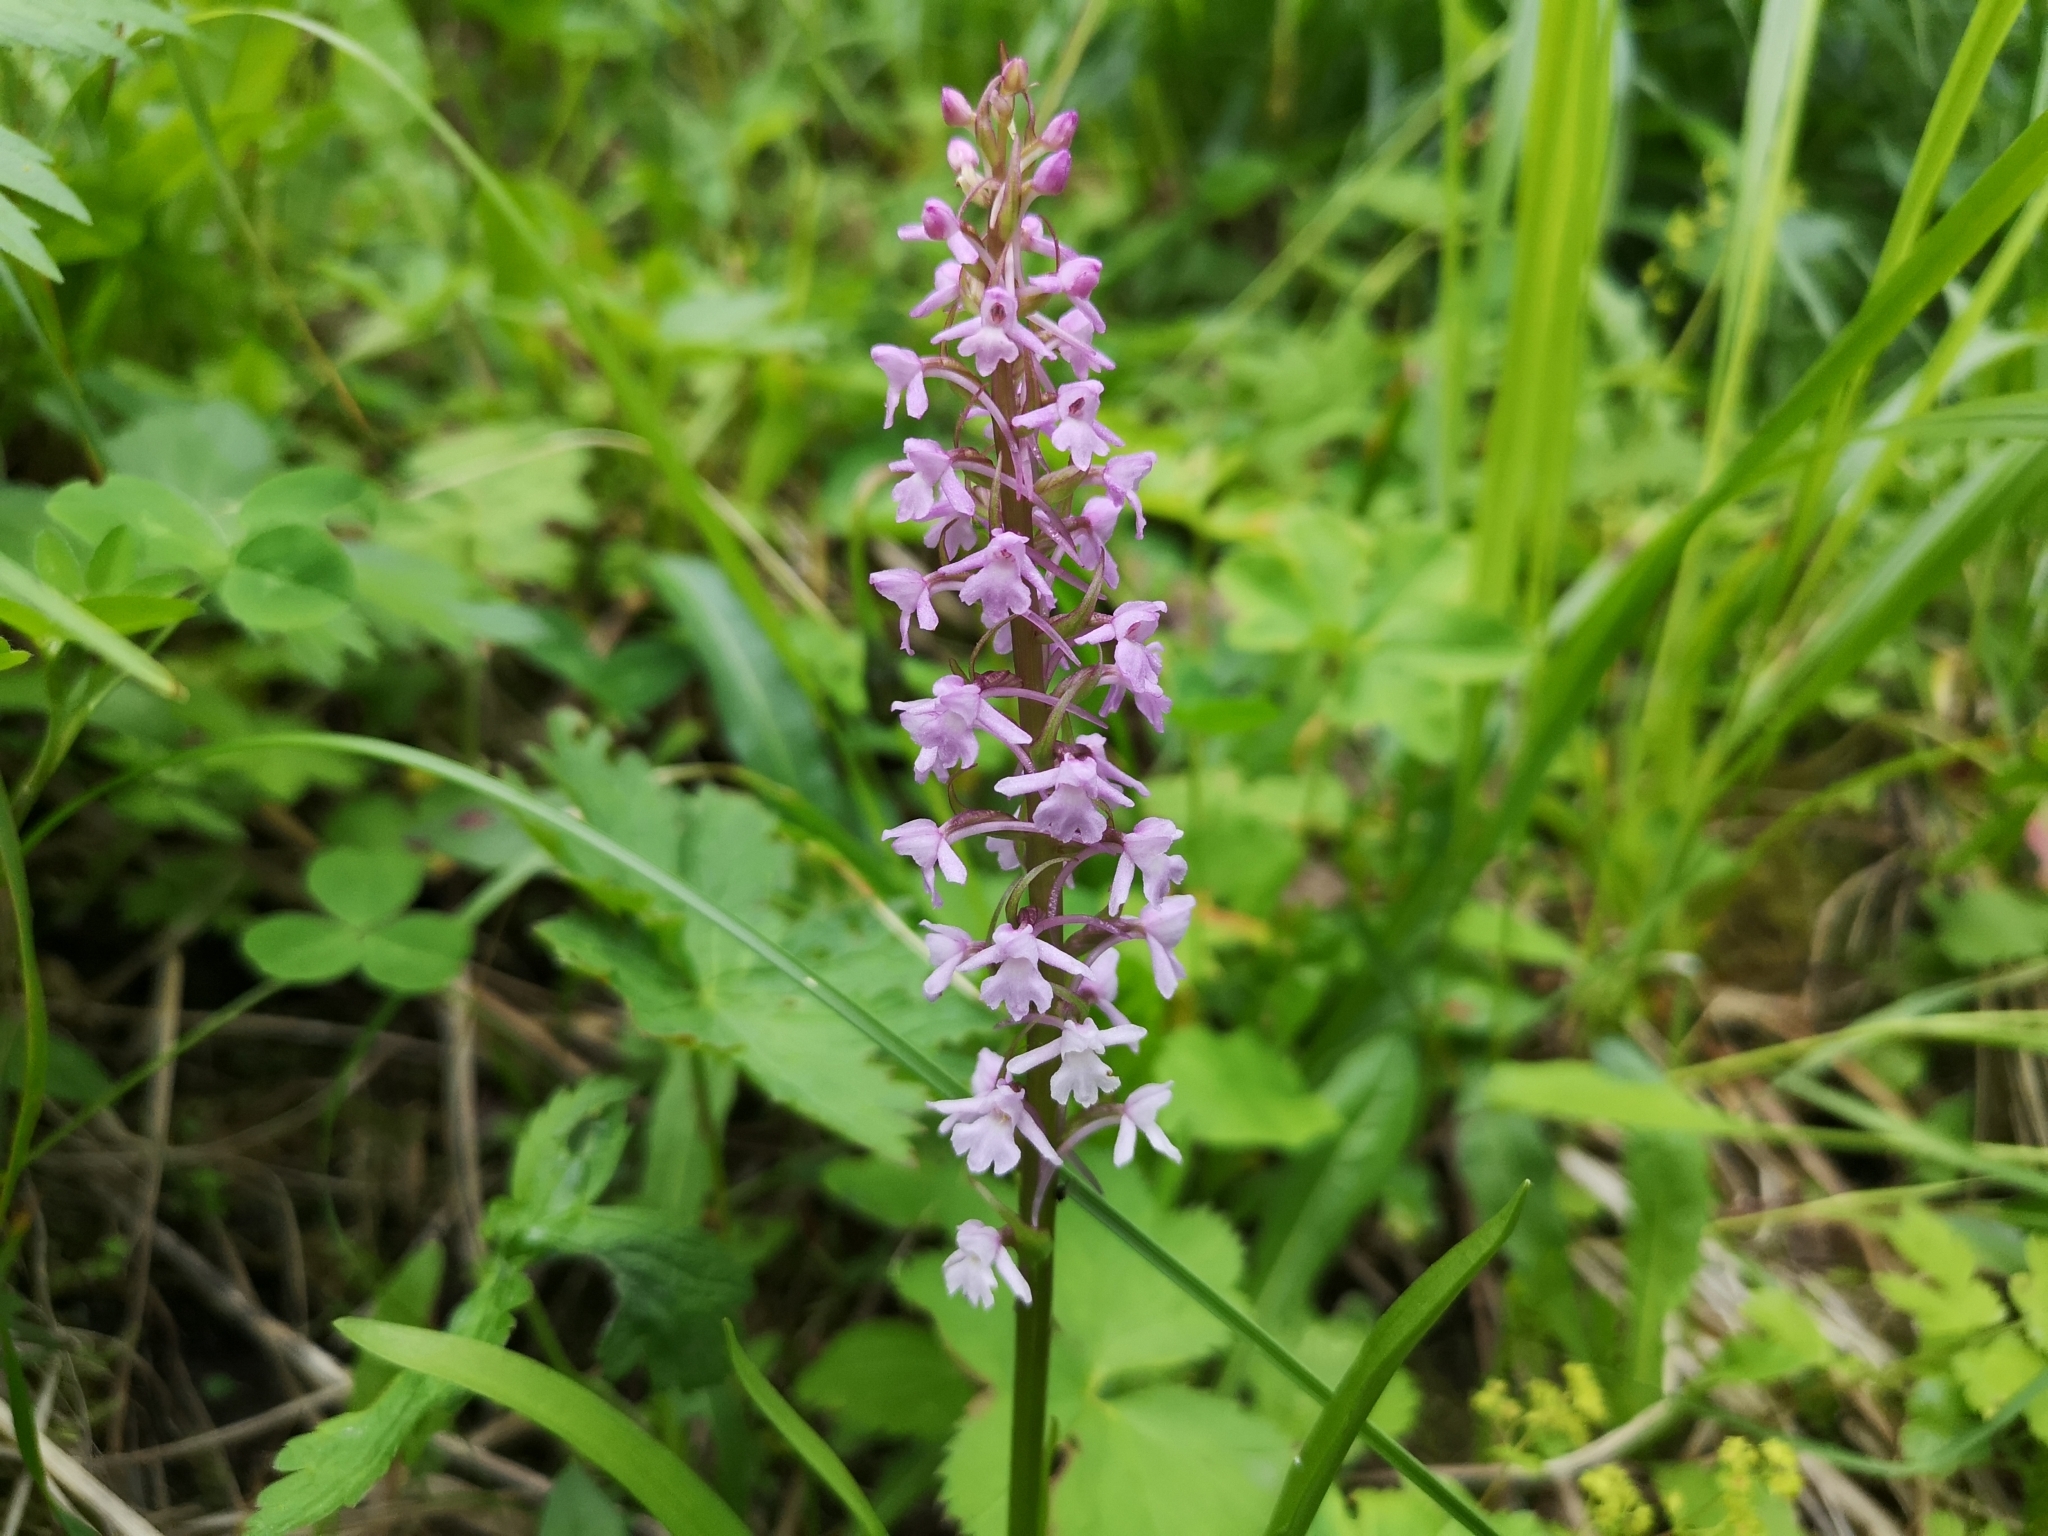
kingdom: Plantae
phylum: Tracheophyta
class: Liliopsida
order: Asparagales
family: Orchidaceae
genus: Gymnadenia
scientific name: Gymnadenia conopsea
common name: Fragrant orchid
